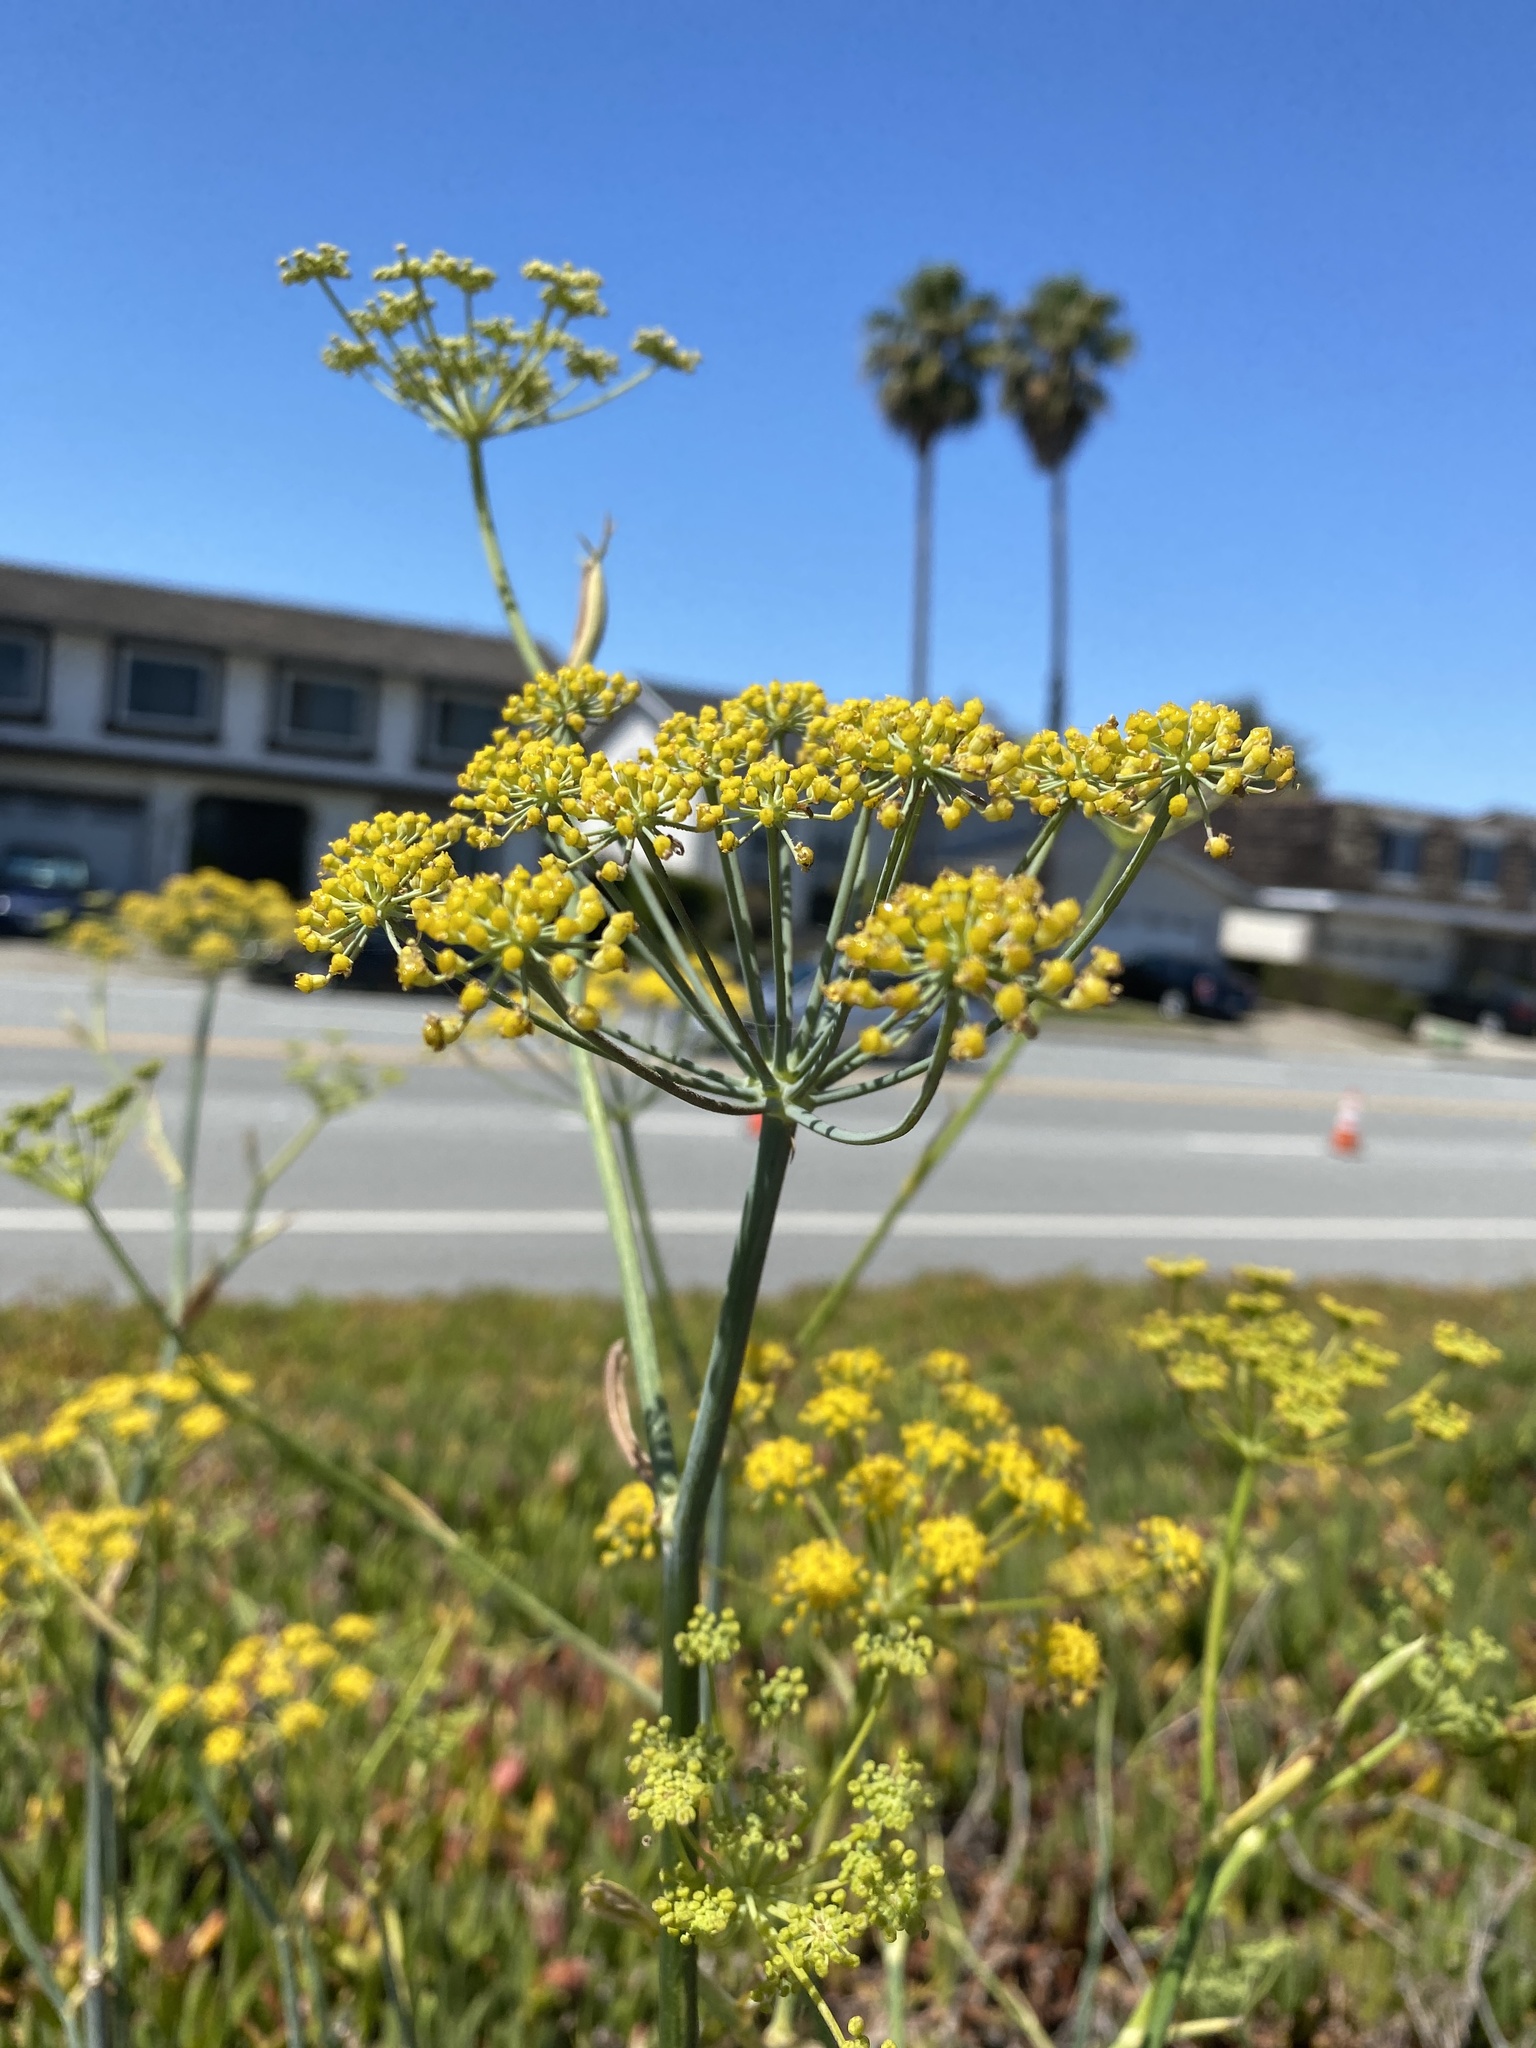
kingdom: Plantae
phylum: Tracheophyta
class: Magnoliopsida
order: Apiales
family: Apiaceae
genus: Foeniculum
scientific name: Foeniculum vulgare
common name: Fennel
